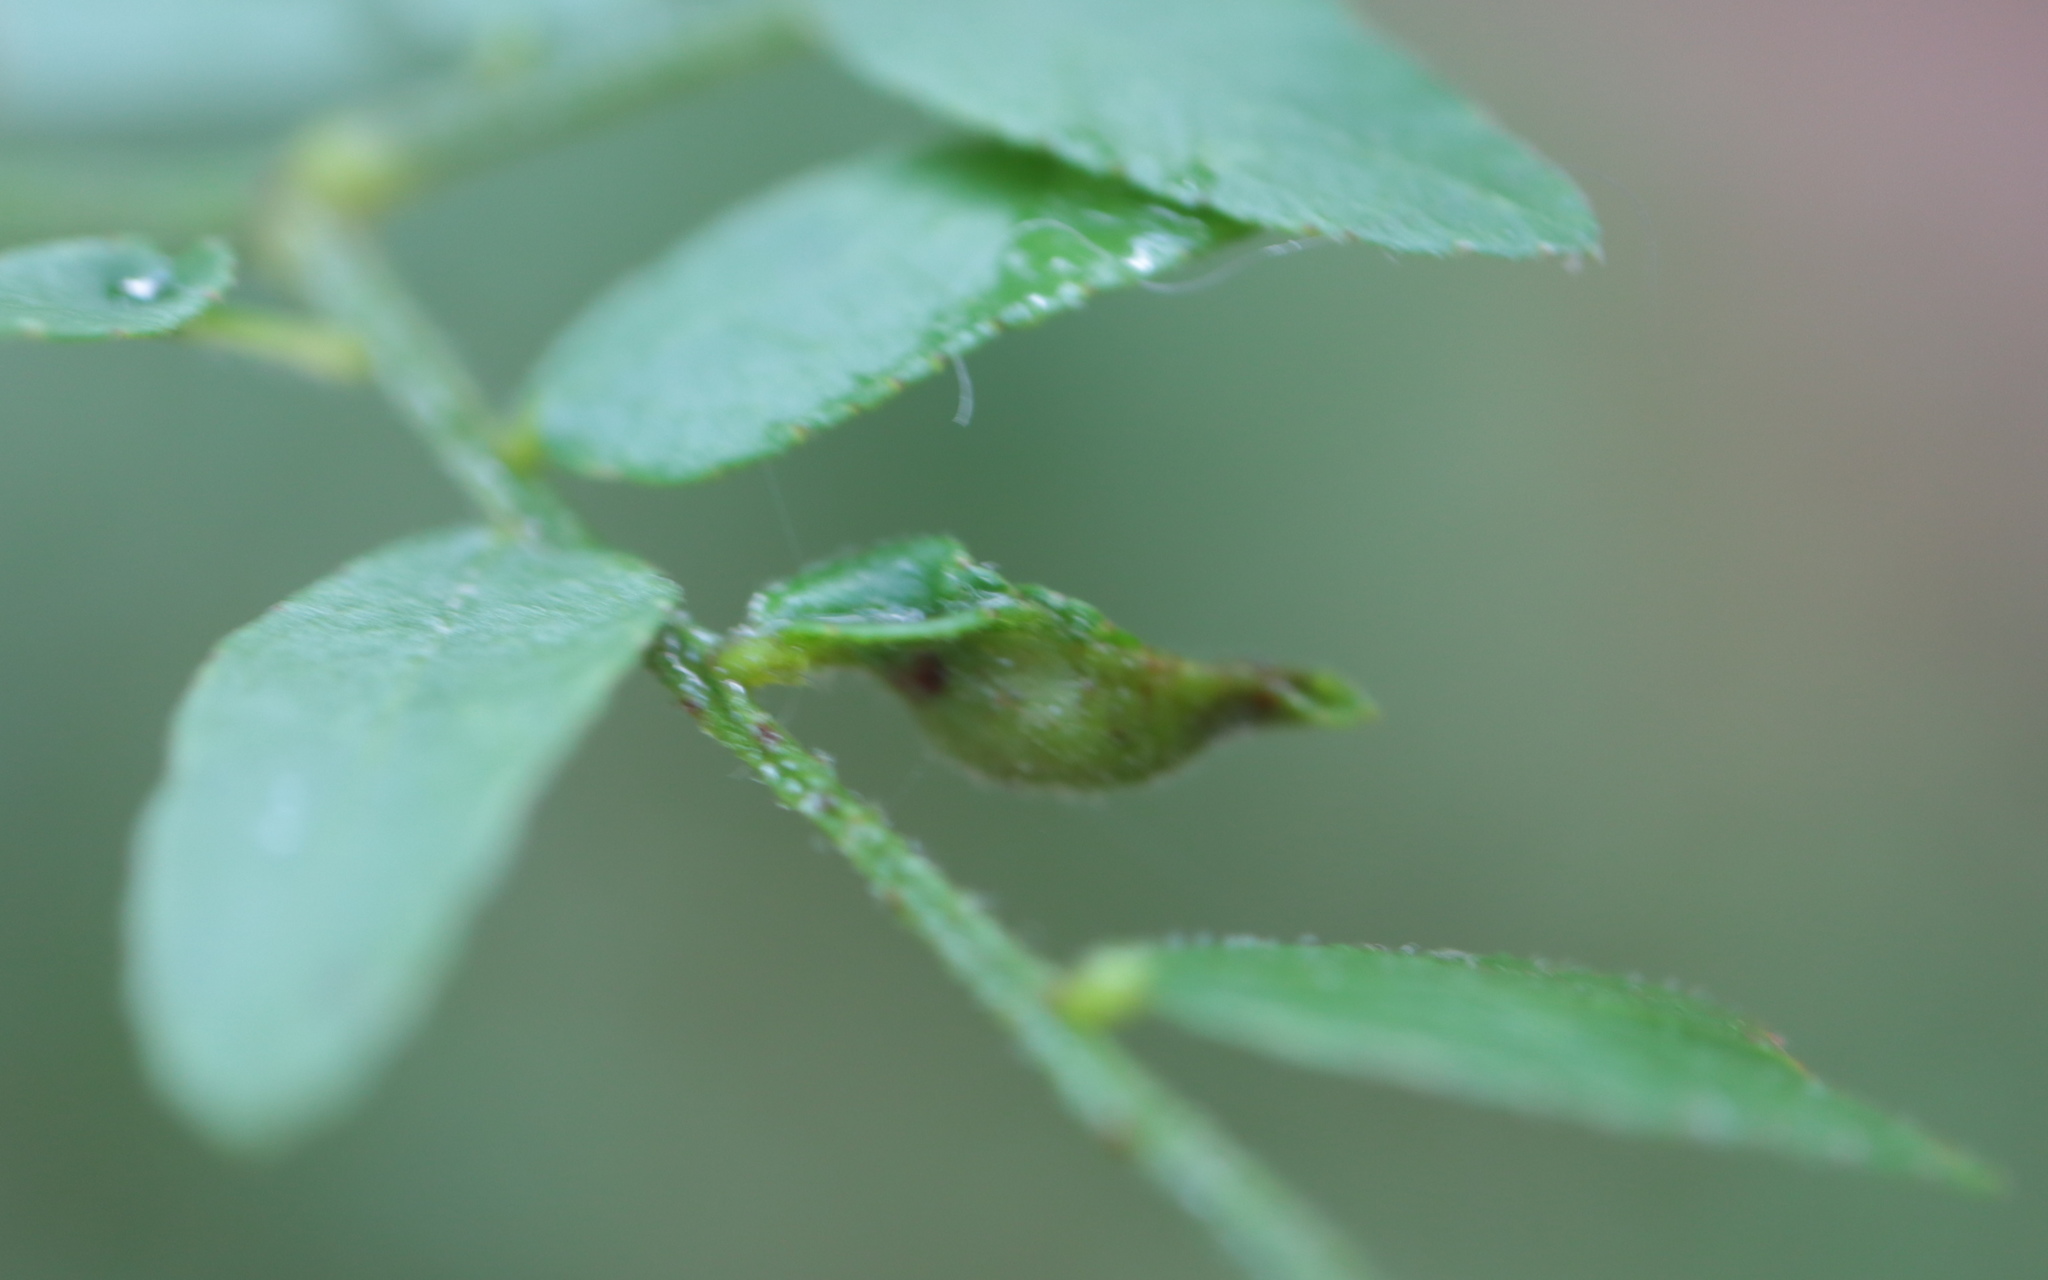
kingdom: Animalia
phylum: Arthropoda
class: Insecta
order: Diptera
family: Cecidomyiidae
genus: Dasineura
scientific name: Dasineura gleditchiae
